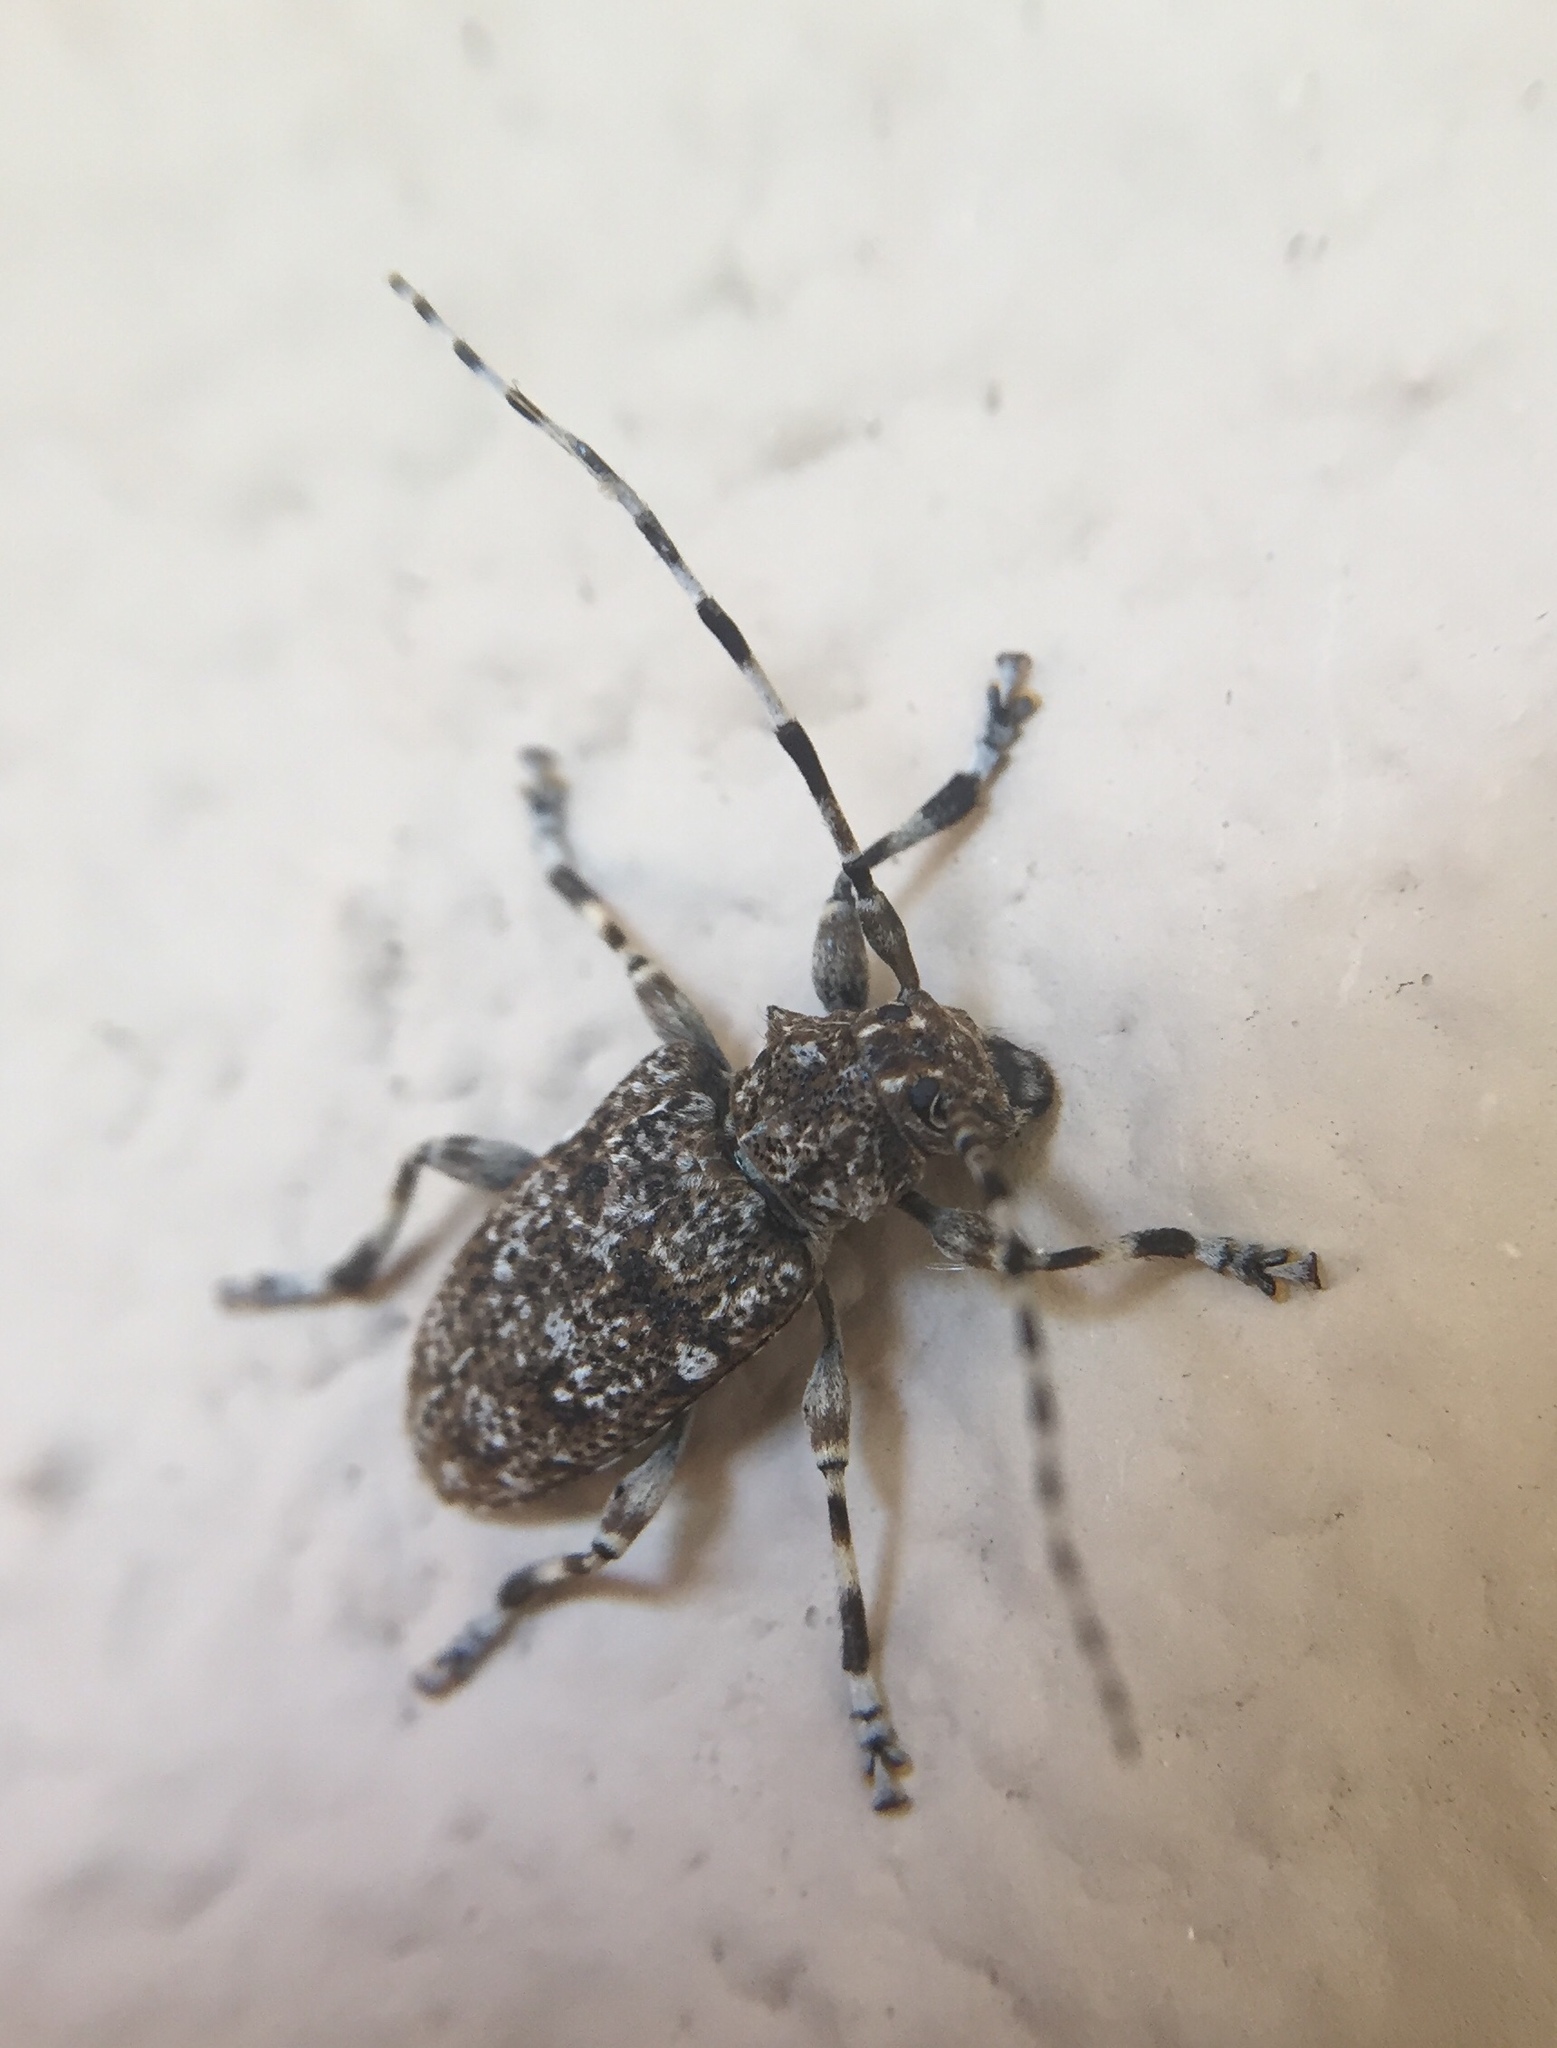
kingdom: Animalia
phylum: Arthropoda
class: Insecta
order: Coleoptera
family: Cerambycidae
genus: Aegomorphus
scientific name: Aegomorphus clavipes
